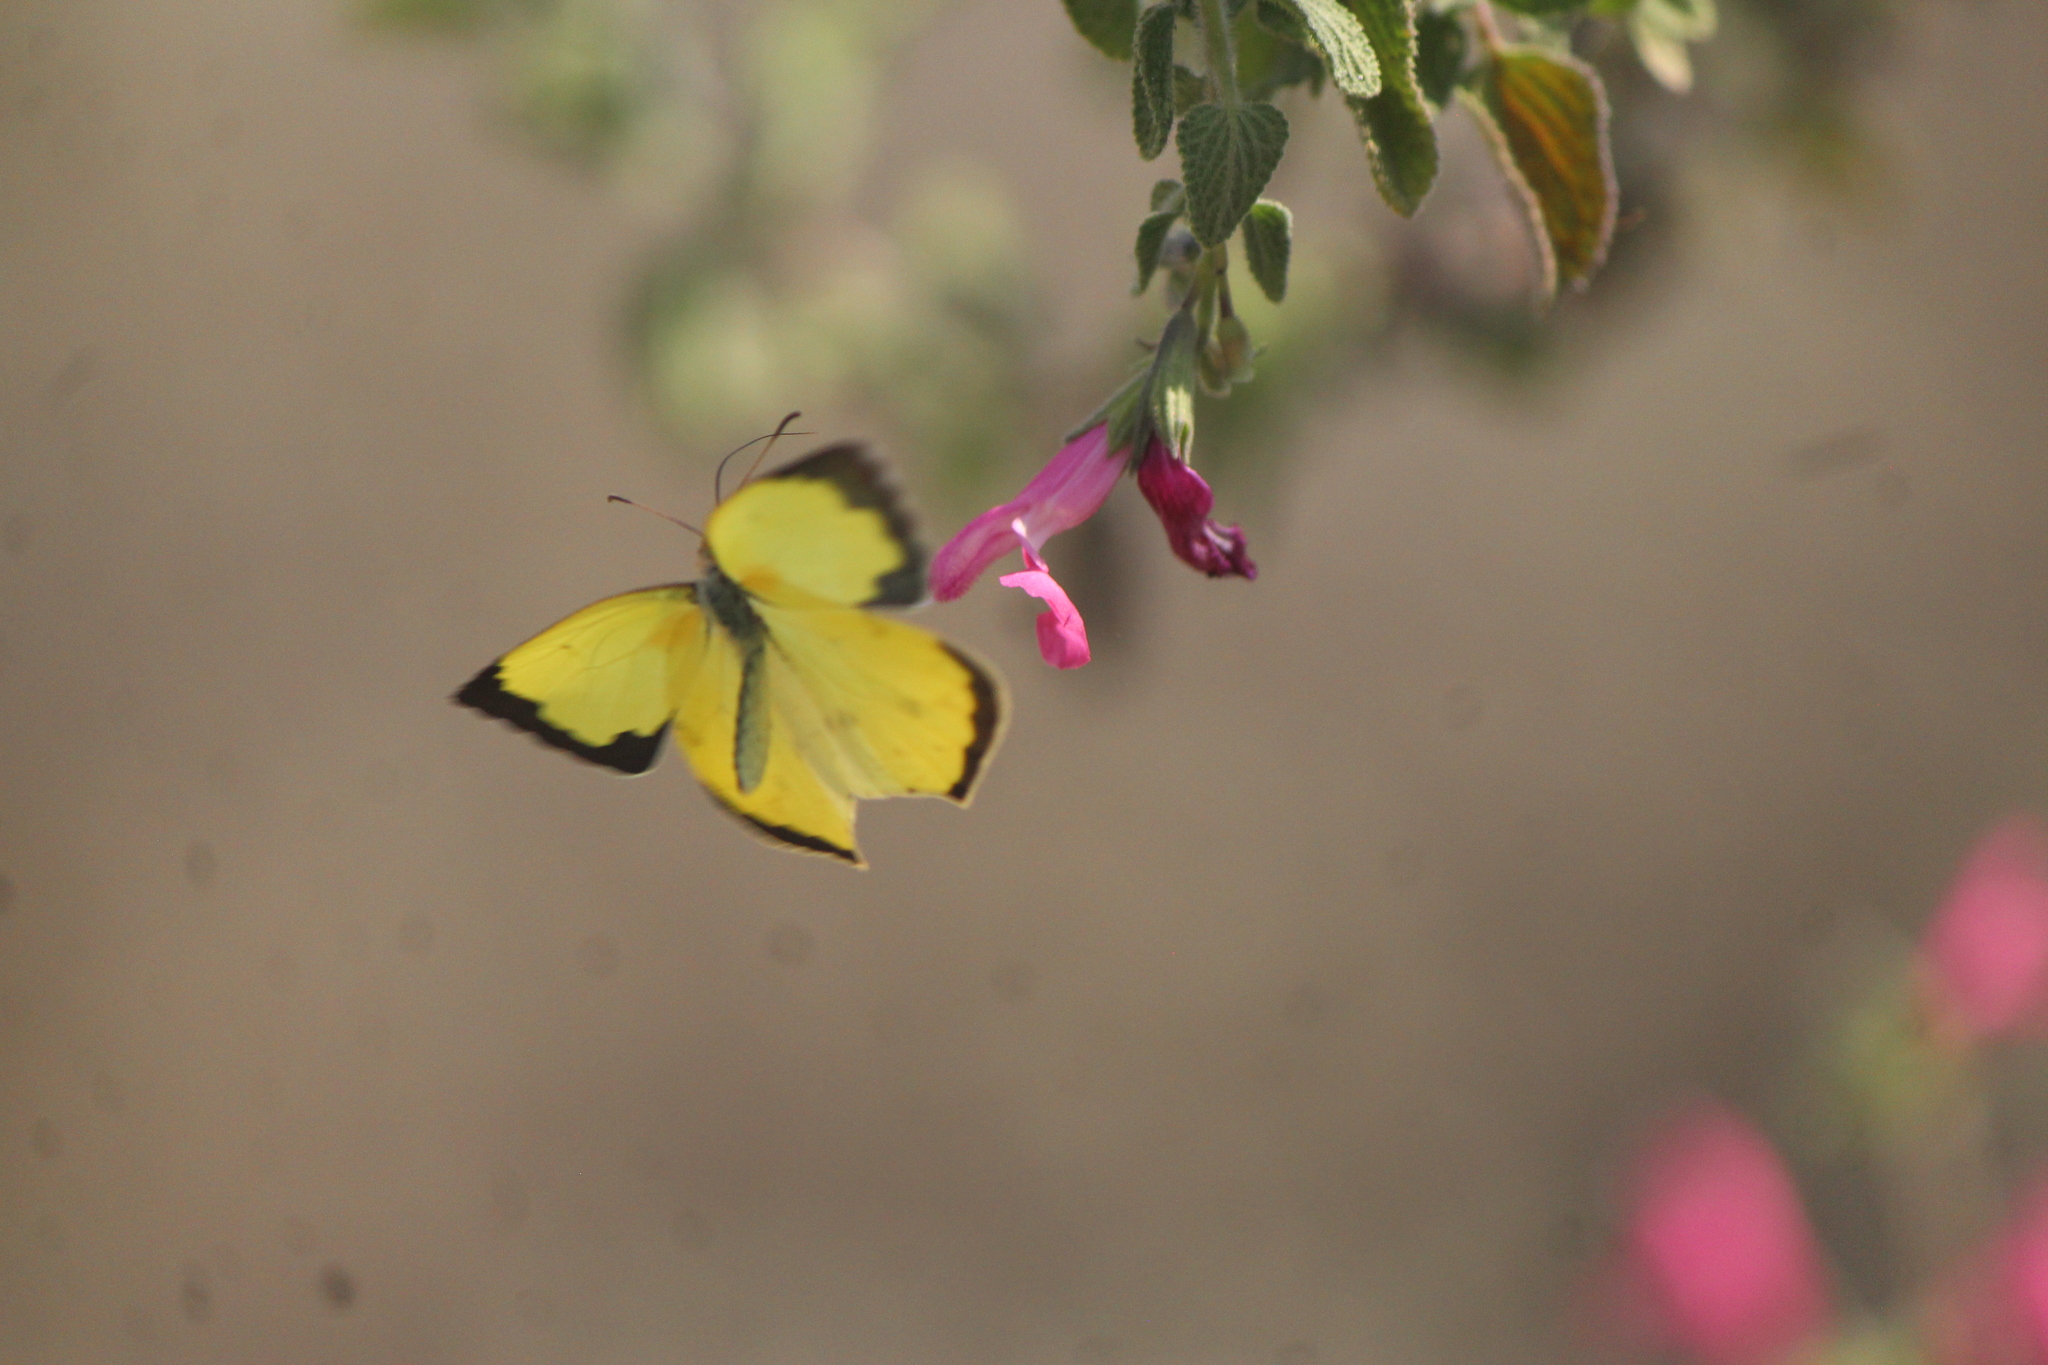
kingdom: Animalia
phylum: Arthropoda
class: Insecta
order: Lepidoptera
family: Pieridae
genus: Abaeis
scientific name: Abaeis salome
